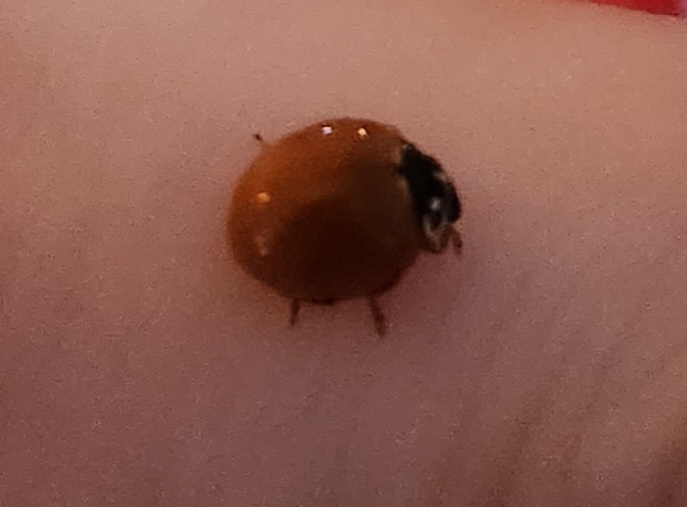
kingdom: Animalia
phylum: Arthropoda
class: Insecta
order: Coleoptera
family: Coccinellidae
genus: Cycloneda
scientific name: Cycloneda sanguinea
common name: Ladybird beetle
